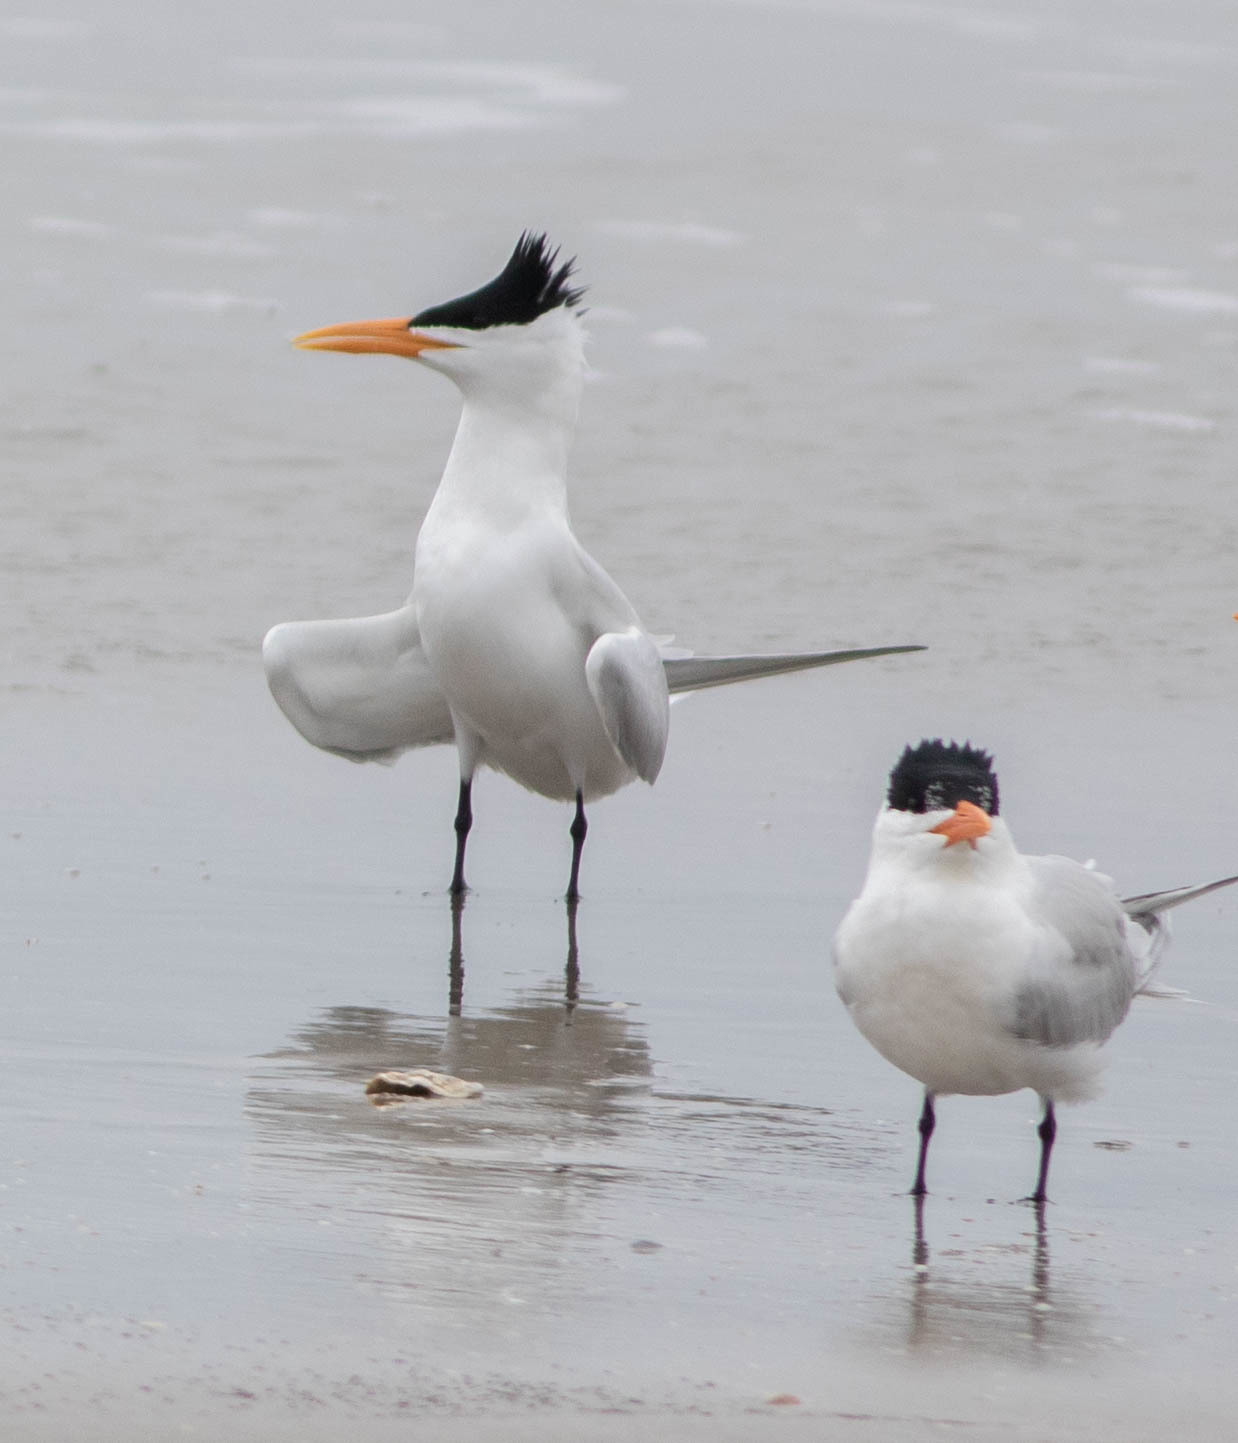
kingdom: Animalia
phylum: Chordata
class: Aves
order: Charadriiformes
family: Laridae
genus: Thalasseus
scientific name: Thalasseus maximus
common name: Royal tern
